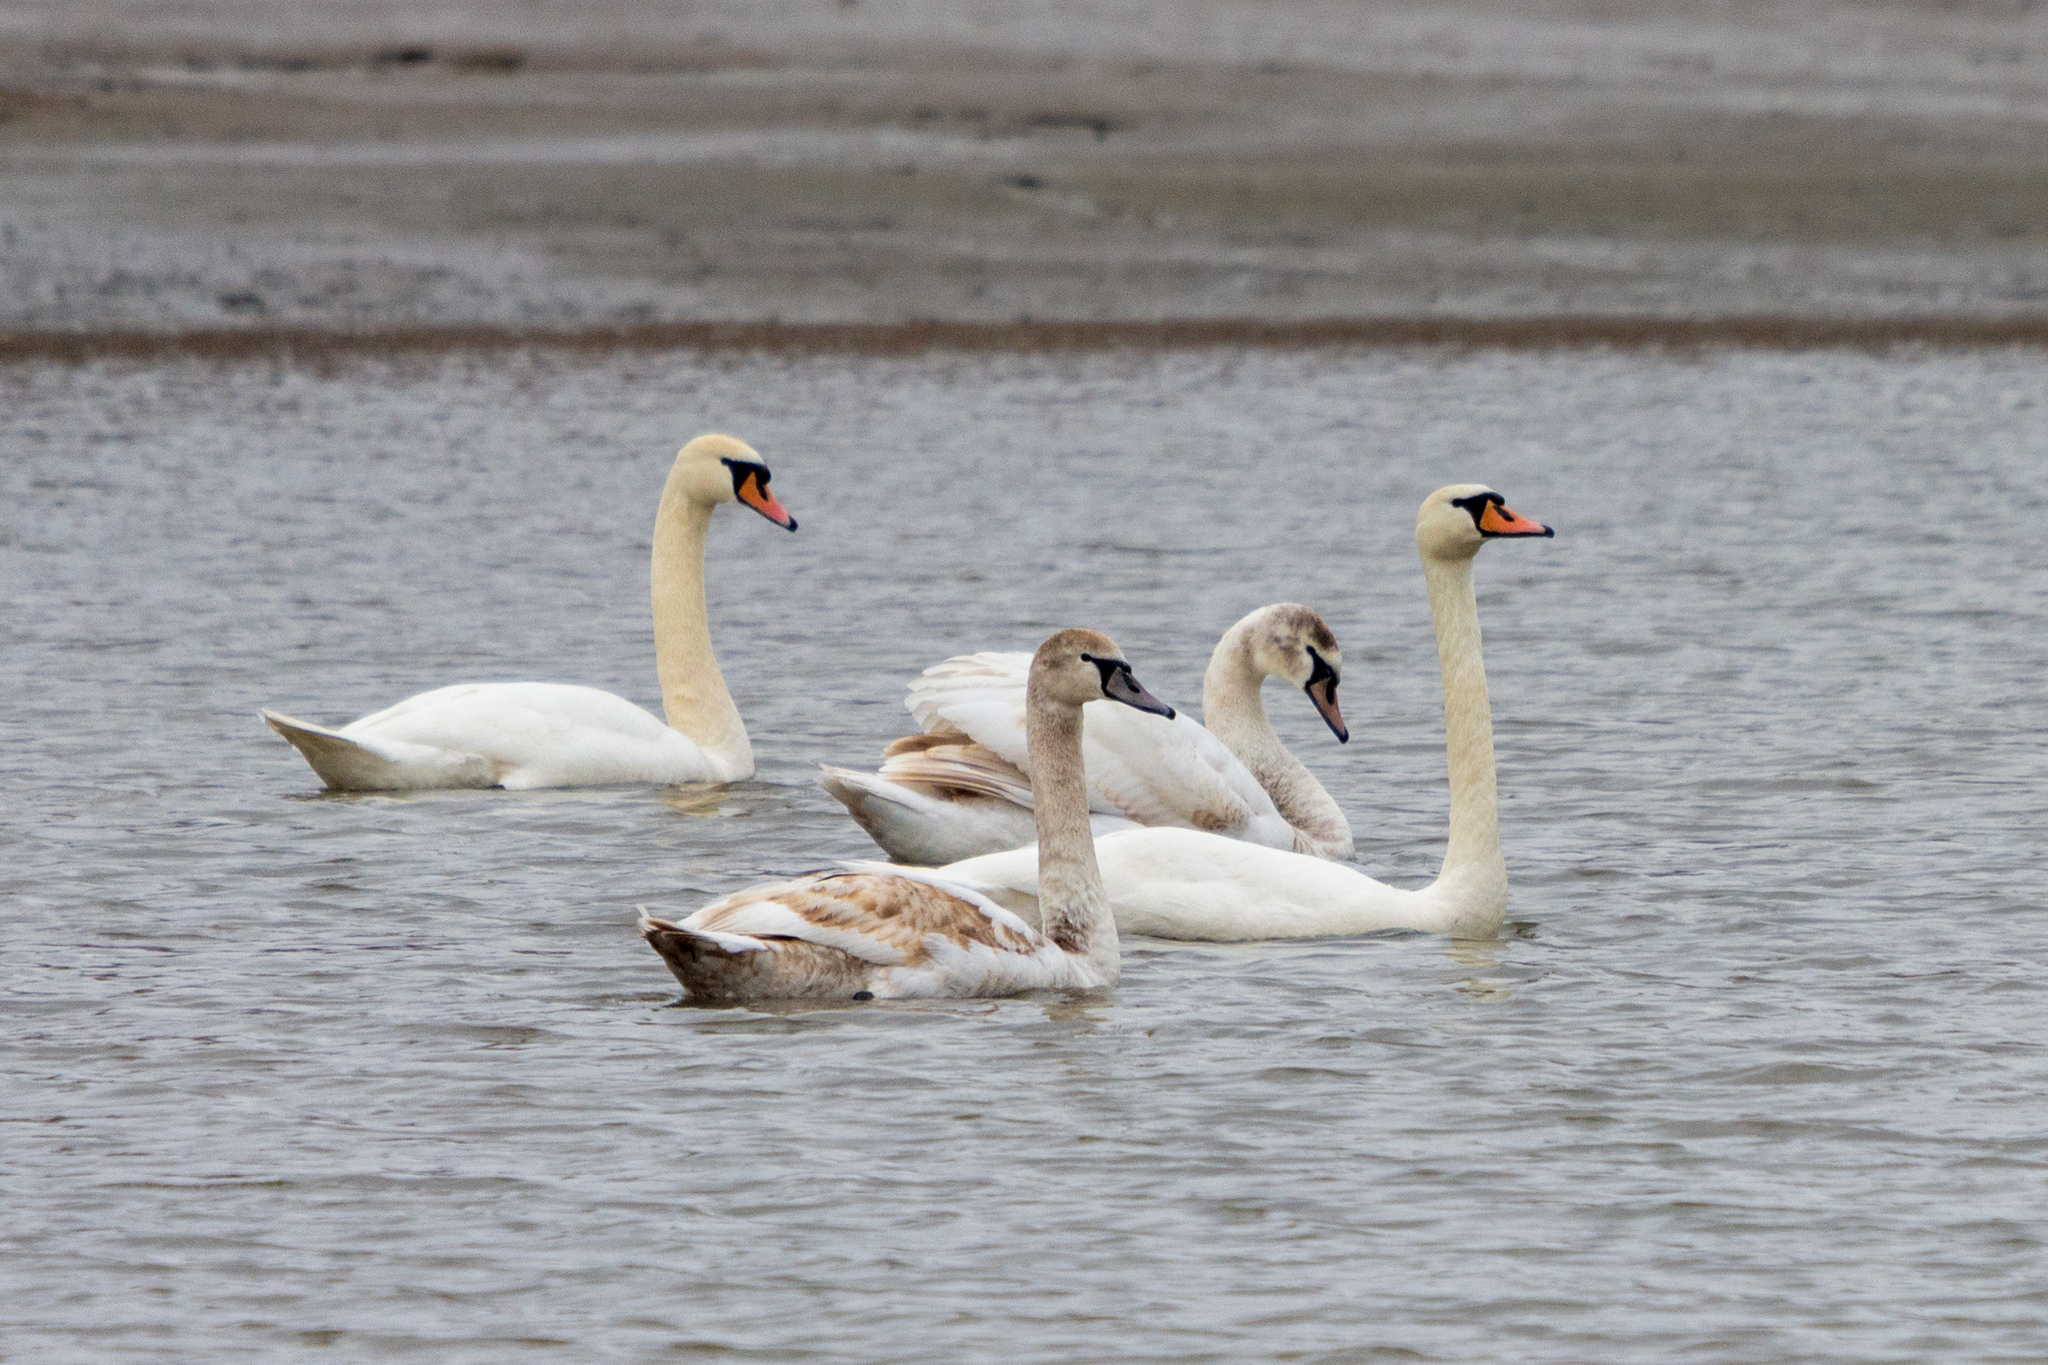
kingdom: Animalia
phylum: Chordata
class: Aves
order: Anseriformes
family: Anatidae
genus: Cygnus
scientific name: Cygnus olor
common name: Mute swan
